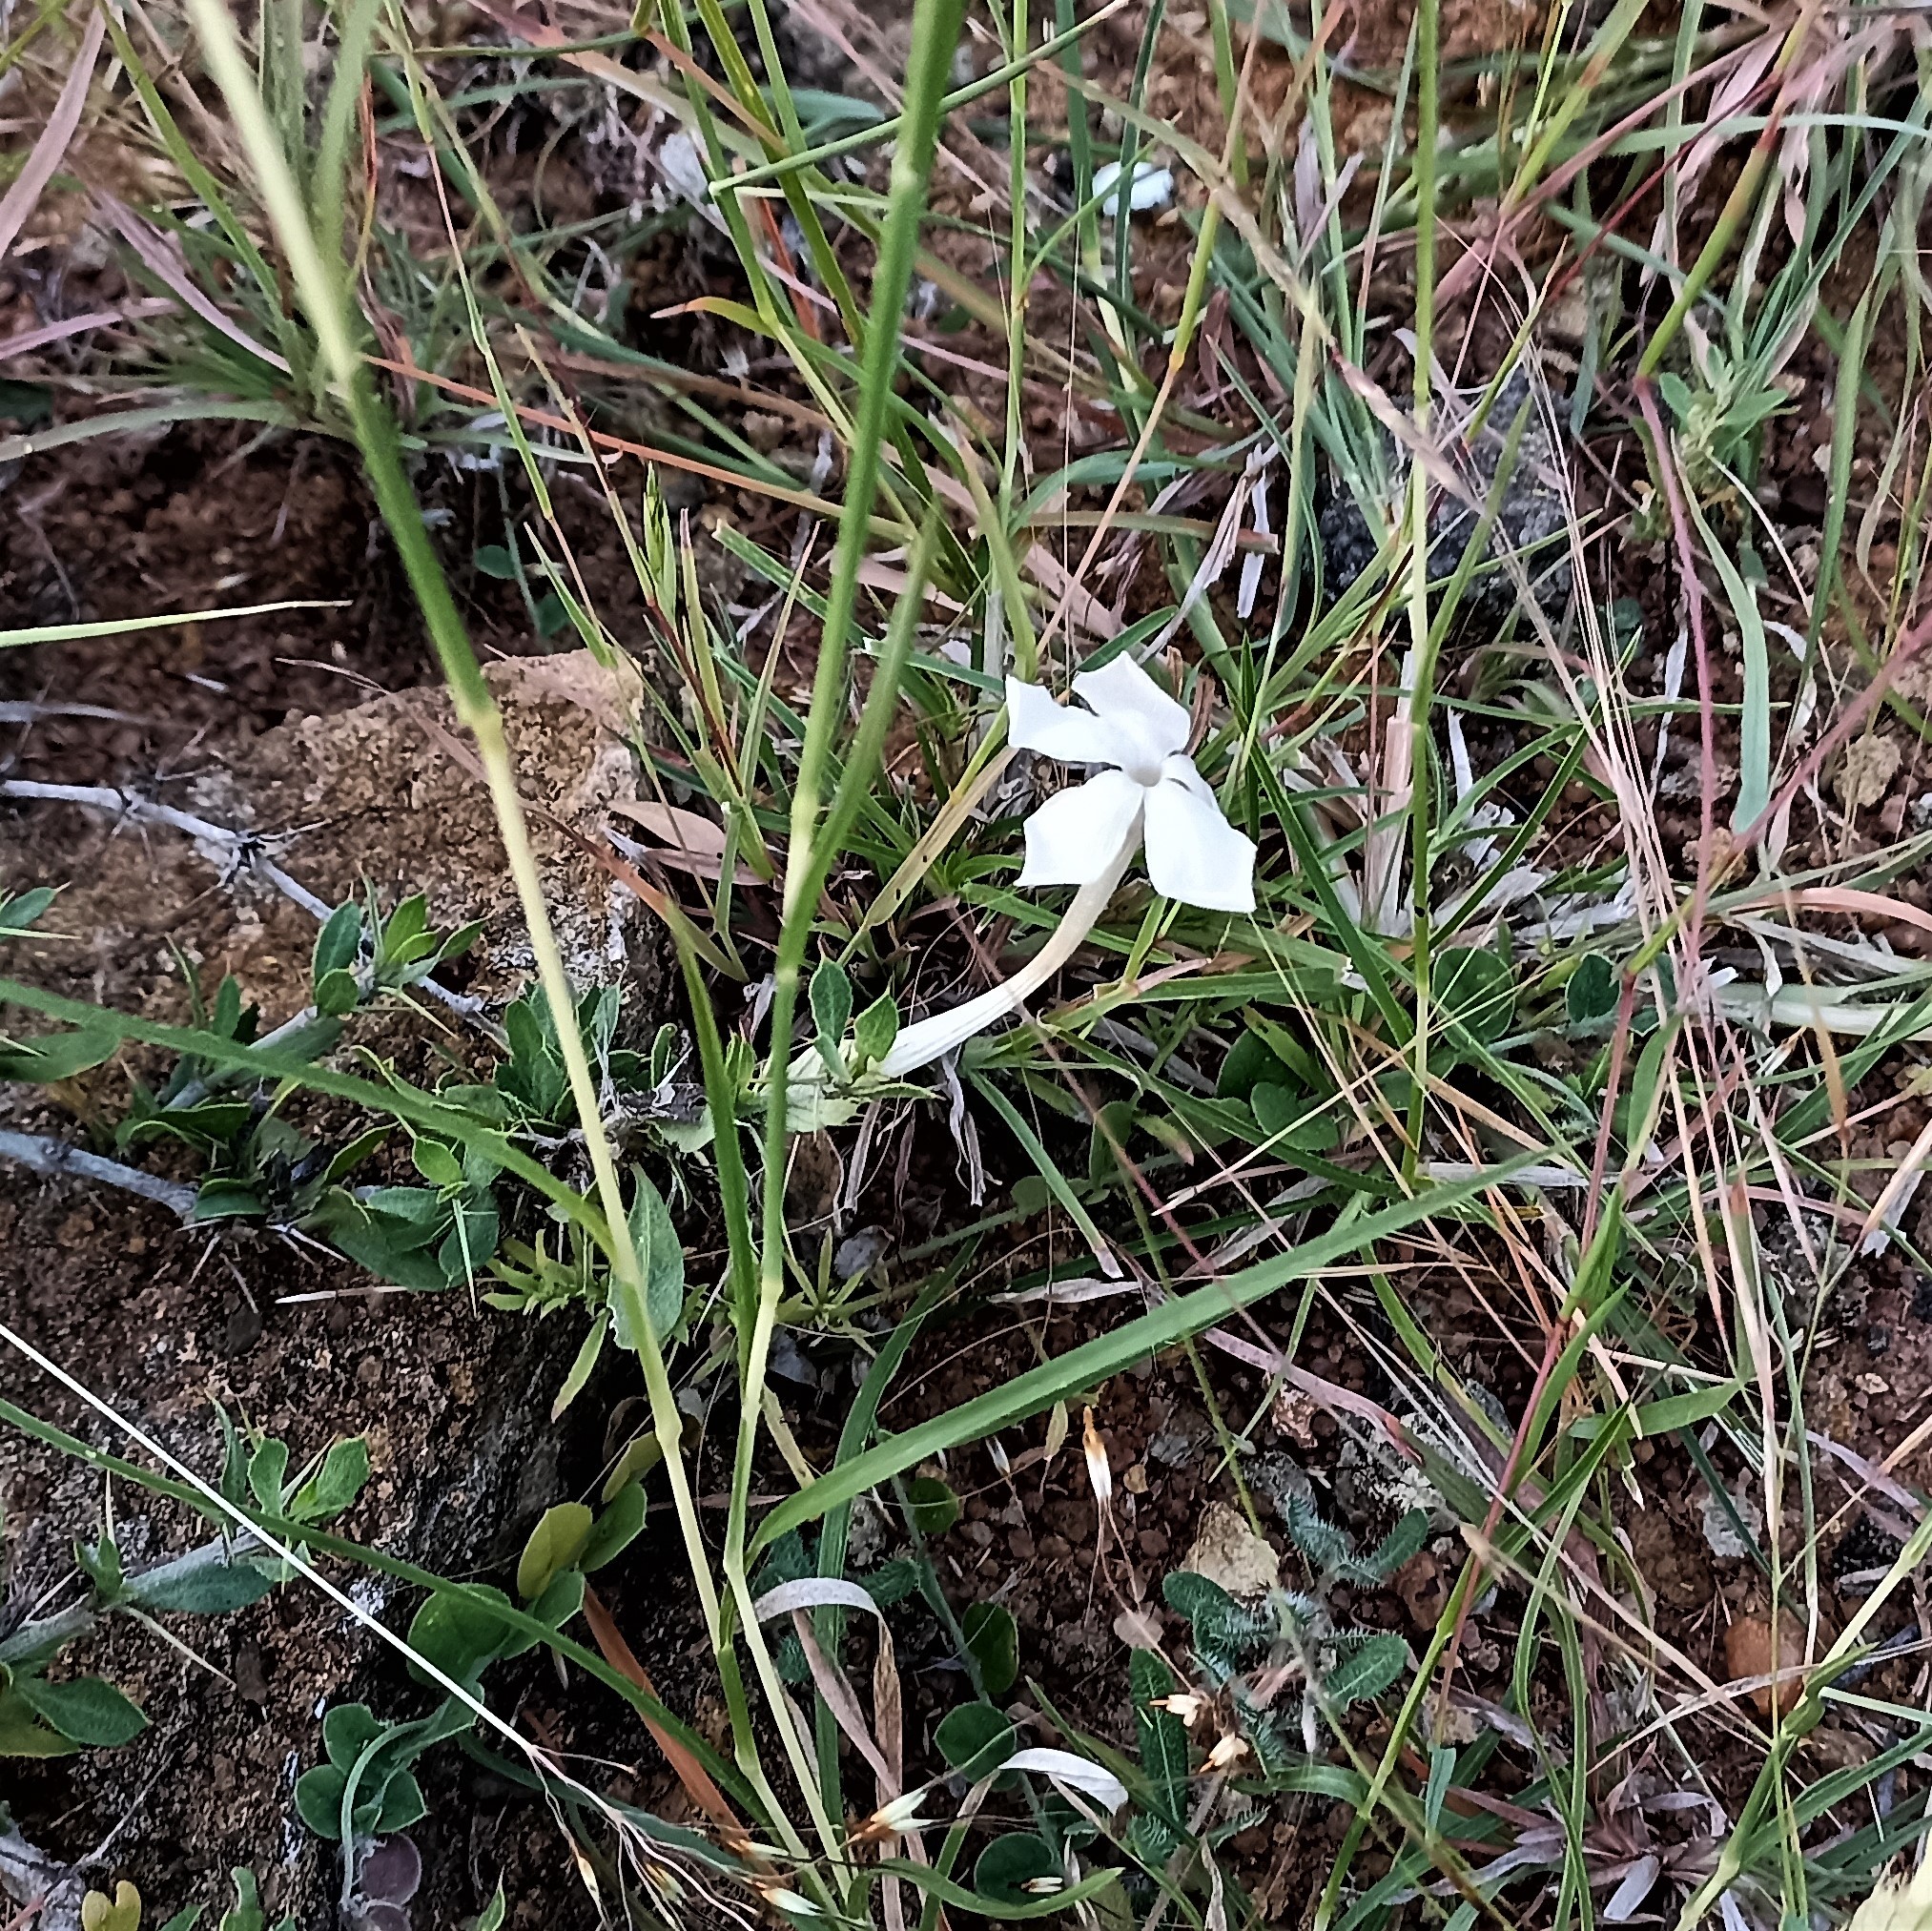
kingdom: Plantae
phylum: Tracheophyta
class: Magnoliopsida
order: Lamiales
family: Acanthaceae
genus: Barleria
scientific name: Barleria noctiflora
